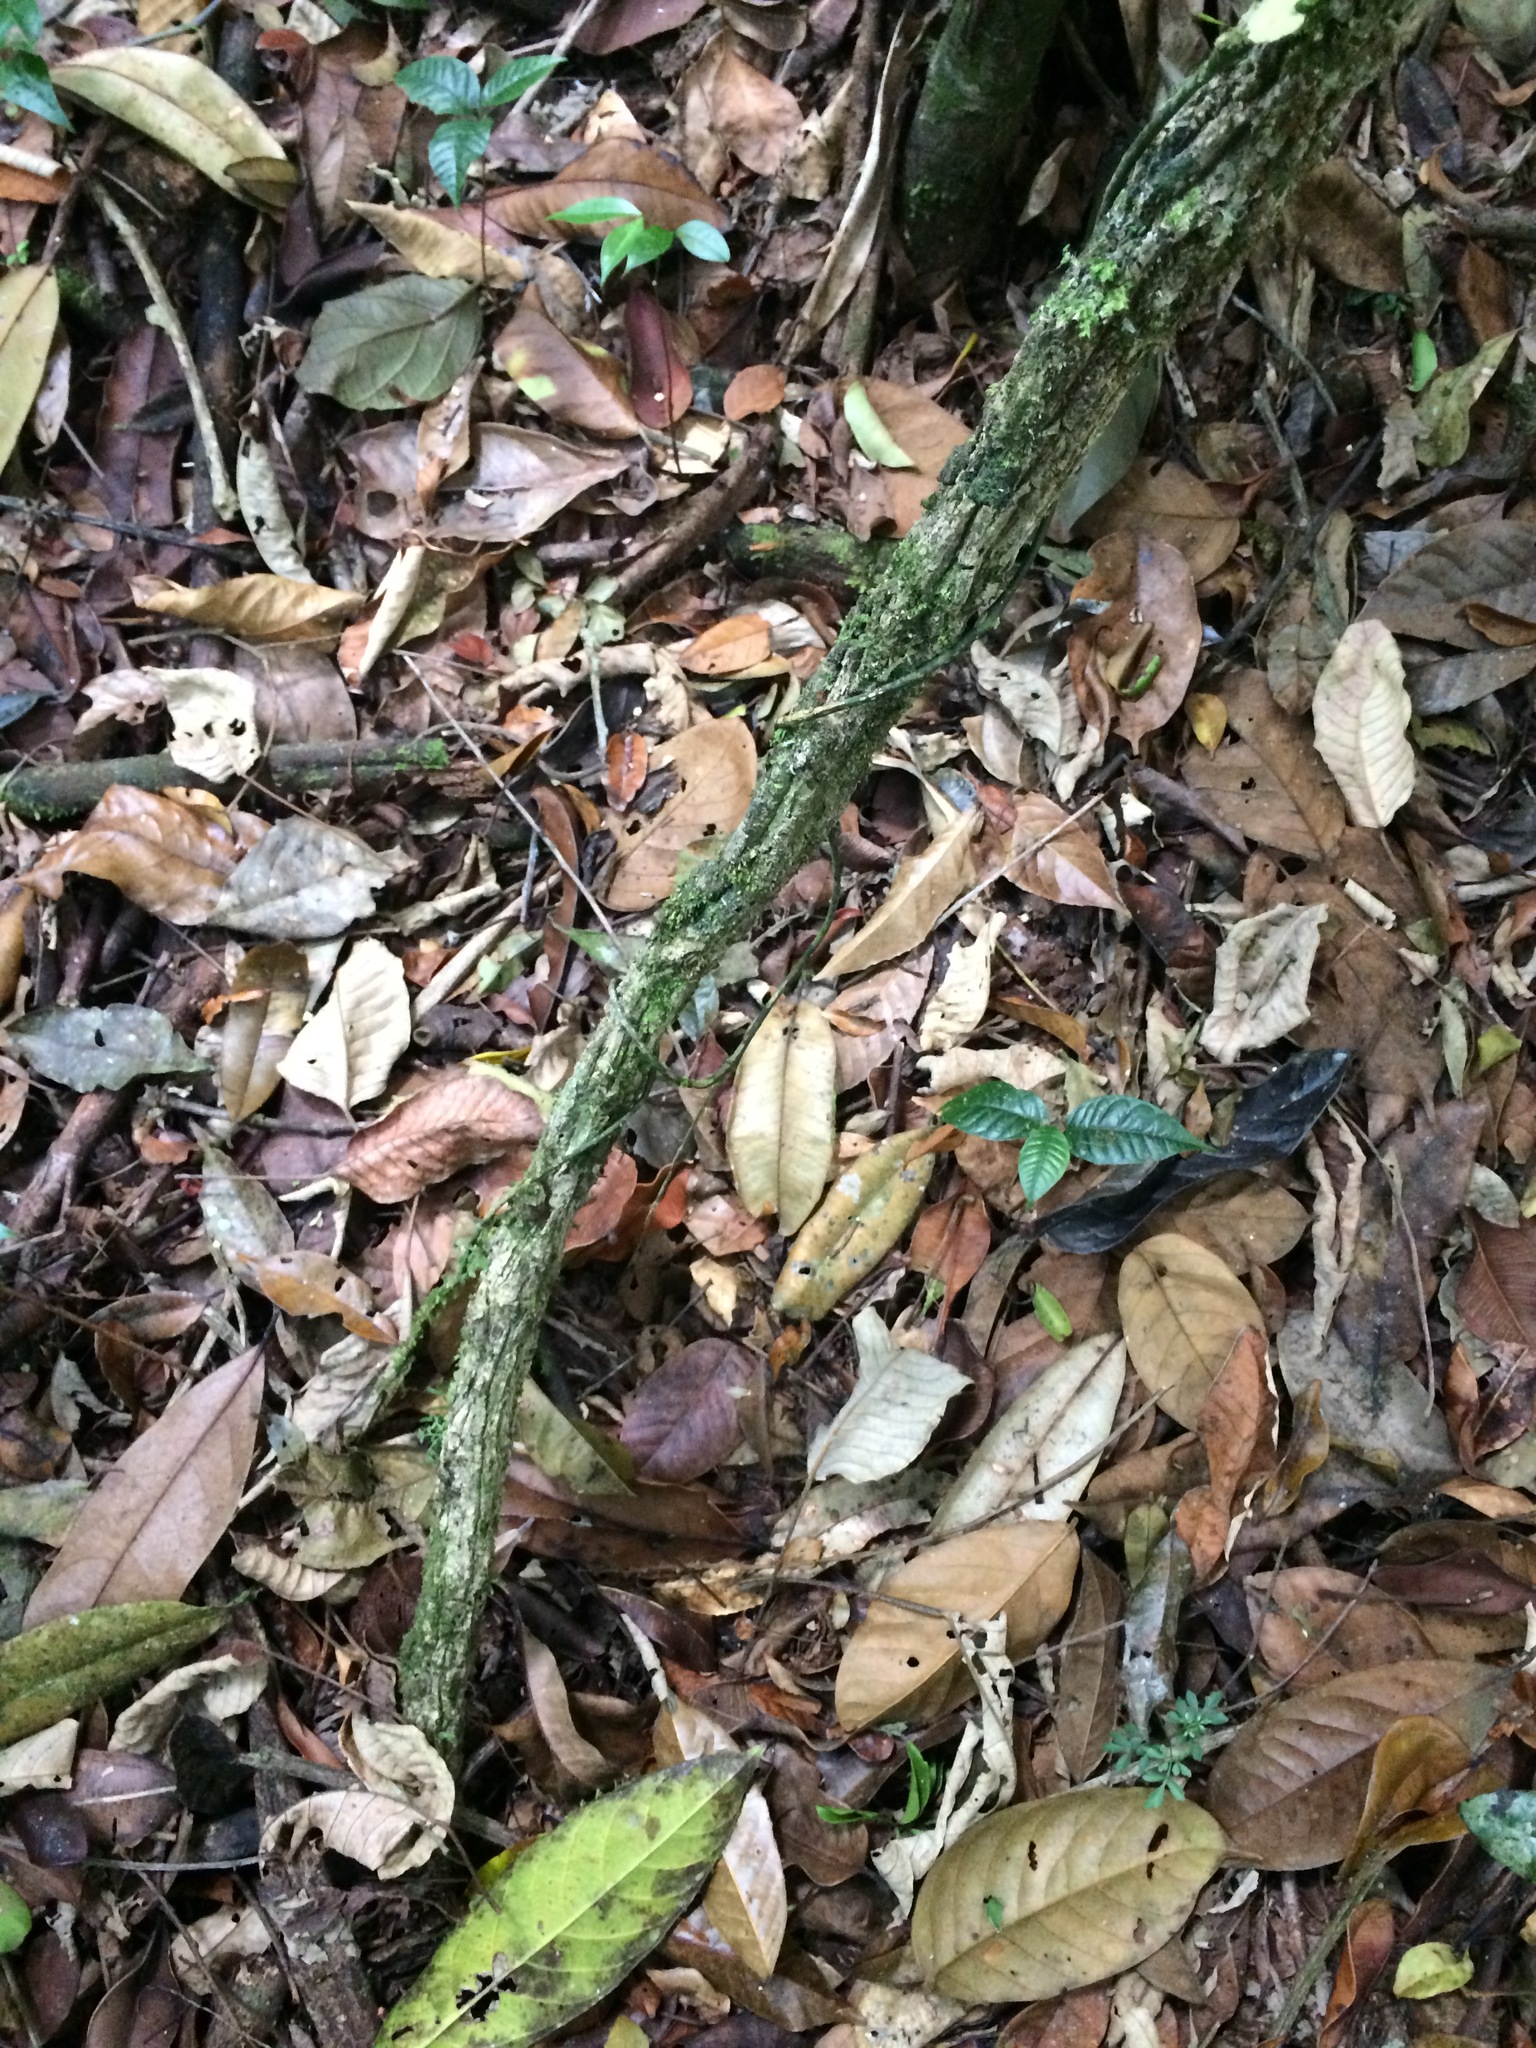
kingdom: Plantae
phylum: Tracheophyta
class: Magnoliopsida
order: Malpighiales
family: Passifloraceae
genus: Passiflora
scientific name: Passiflora contracta
